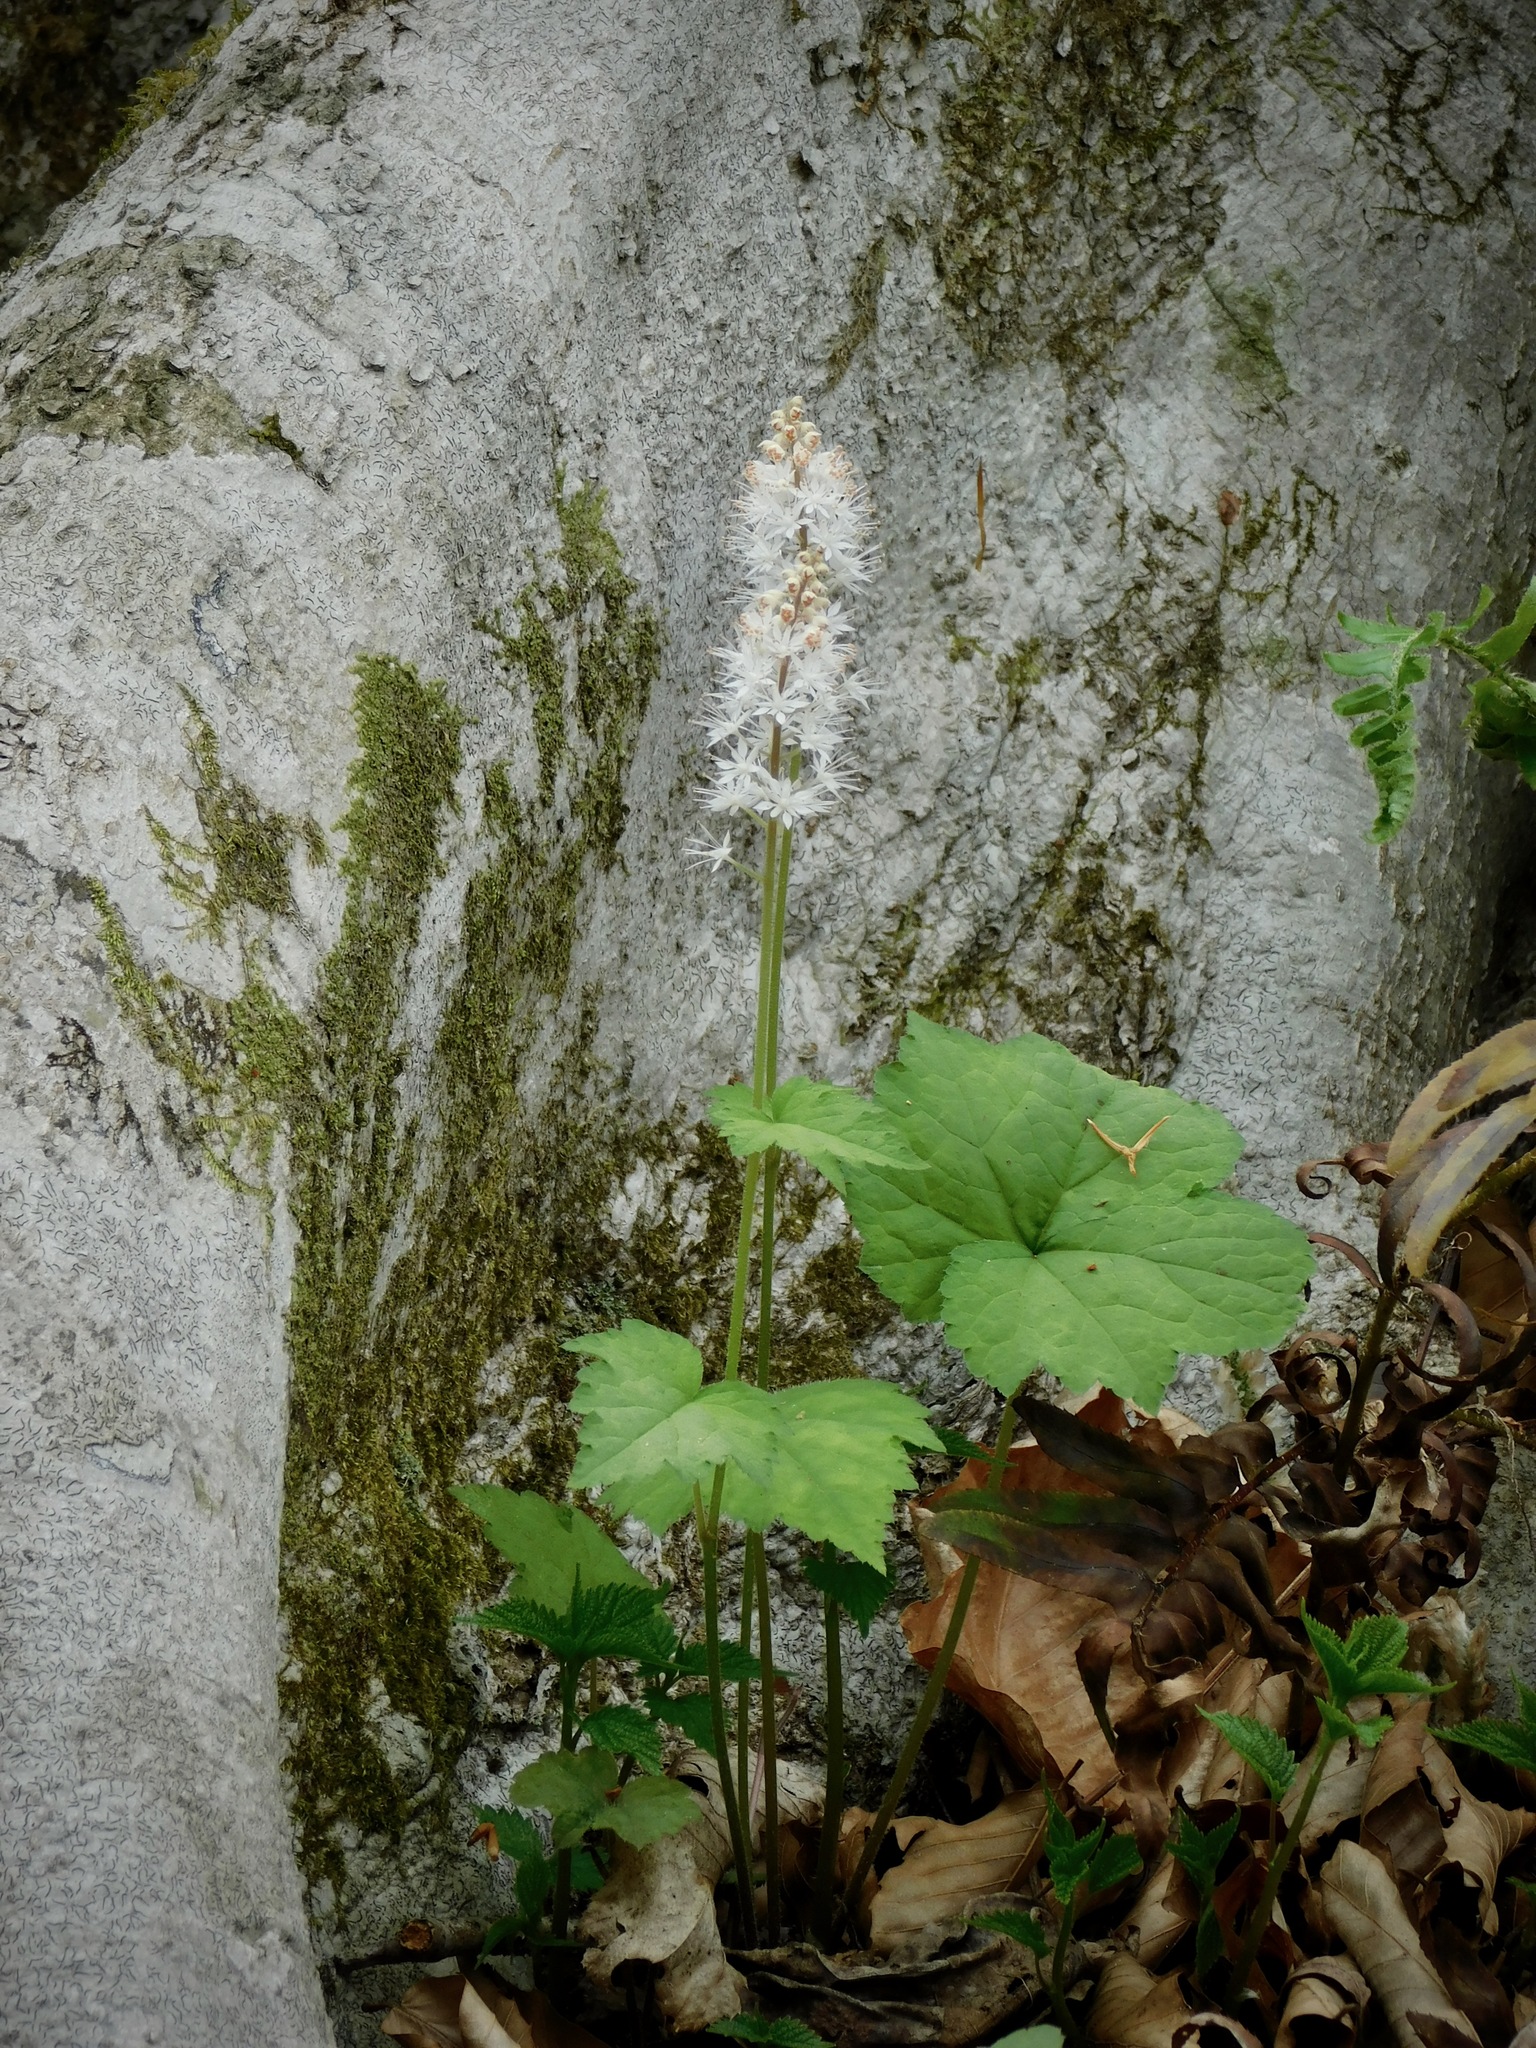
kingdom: Plantae
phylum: Tracheophyta
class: Magnoliopsida
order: Saxifragales
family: Saxifragaceae
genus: Tiarella
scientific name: Tiarella austrina
